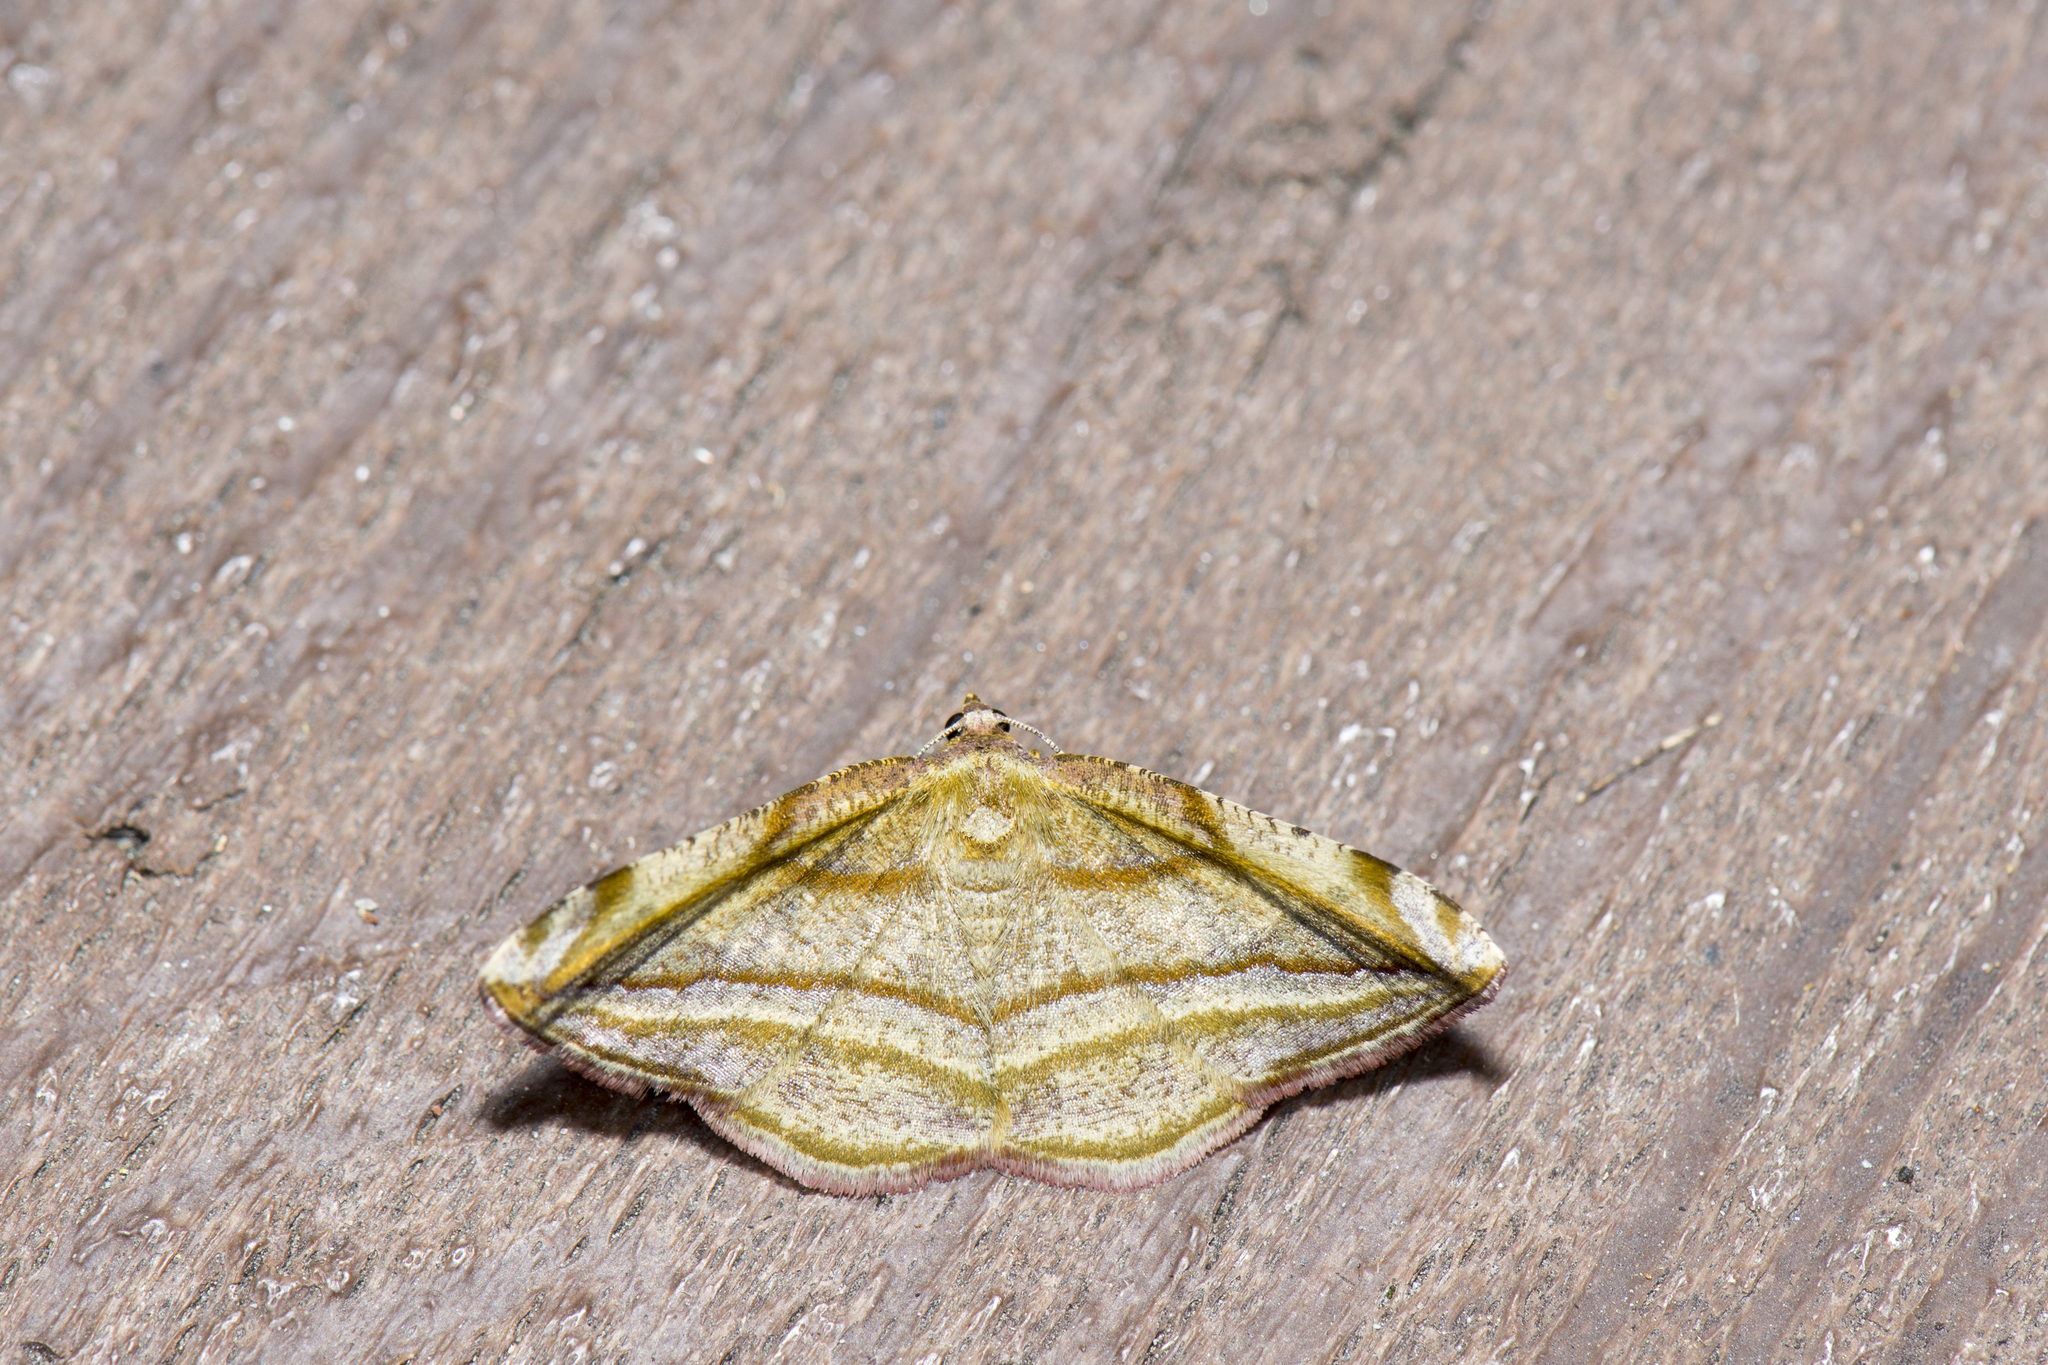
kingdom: Animalia
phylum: Arthropoda
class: Insecta
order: Lepidoptera
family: Geometridae
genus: Loxotephria
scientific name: Loxotephria olivacea
